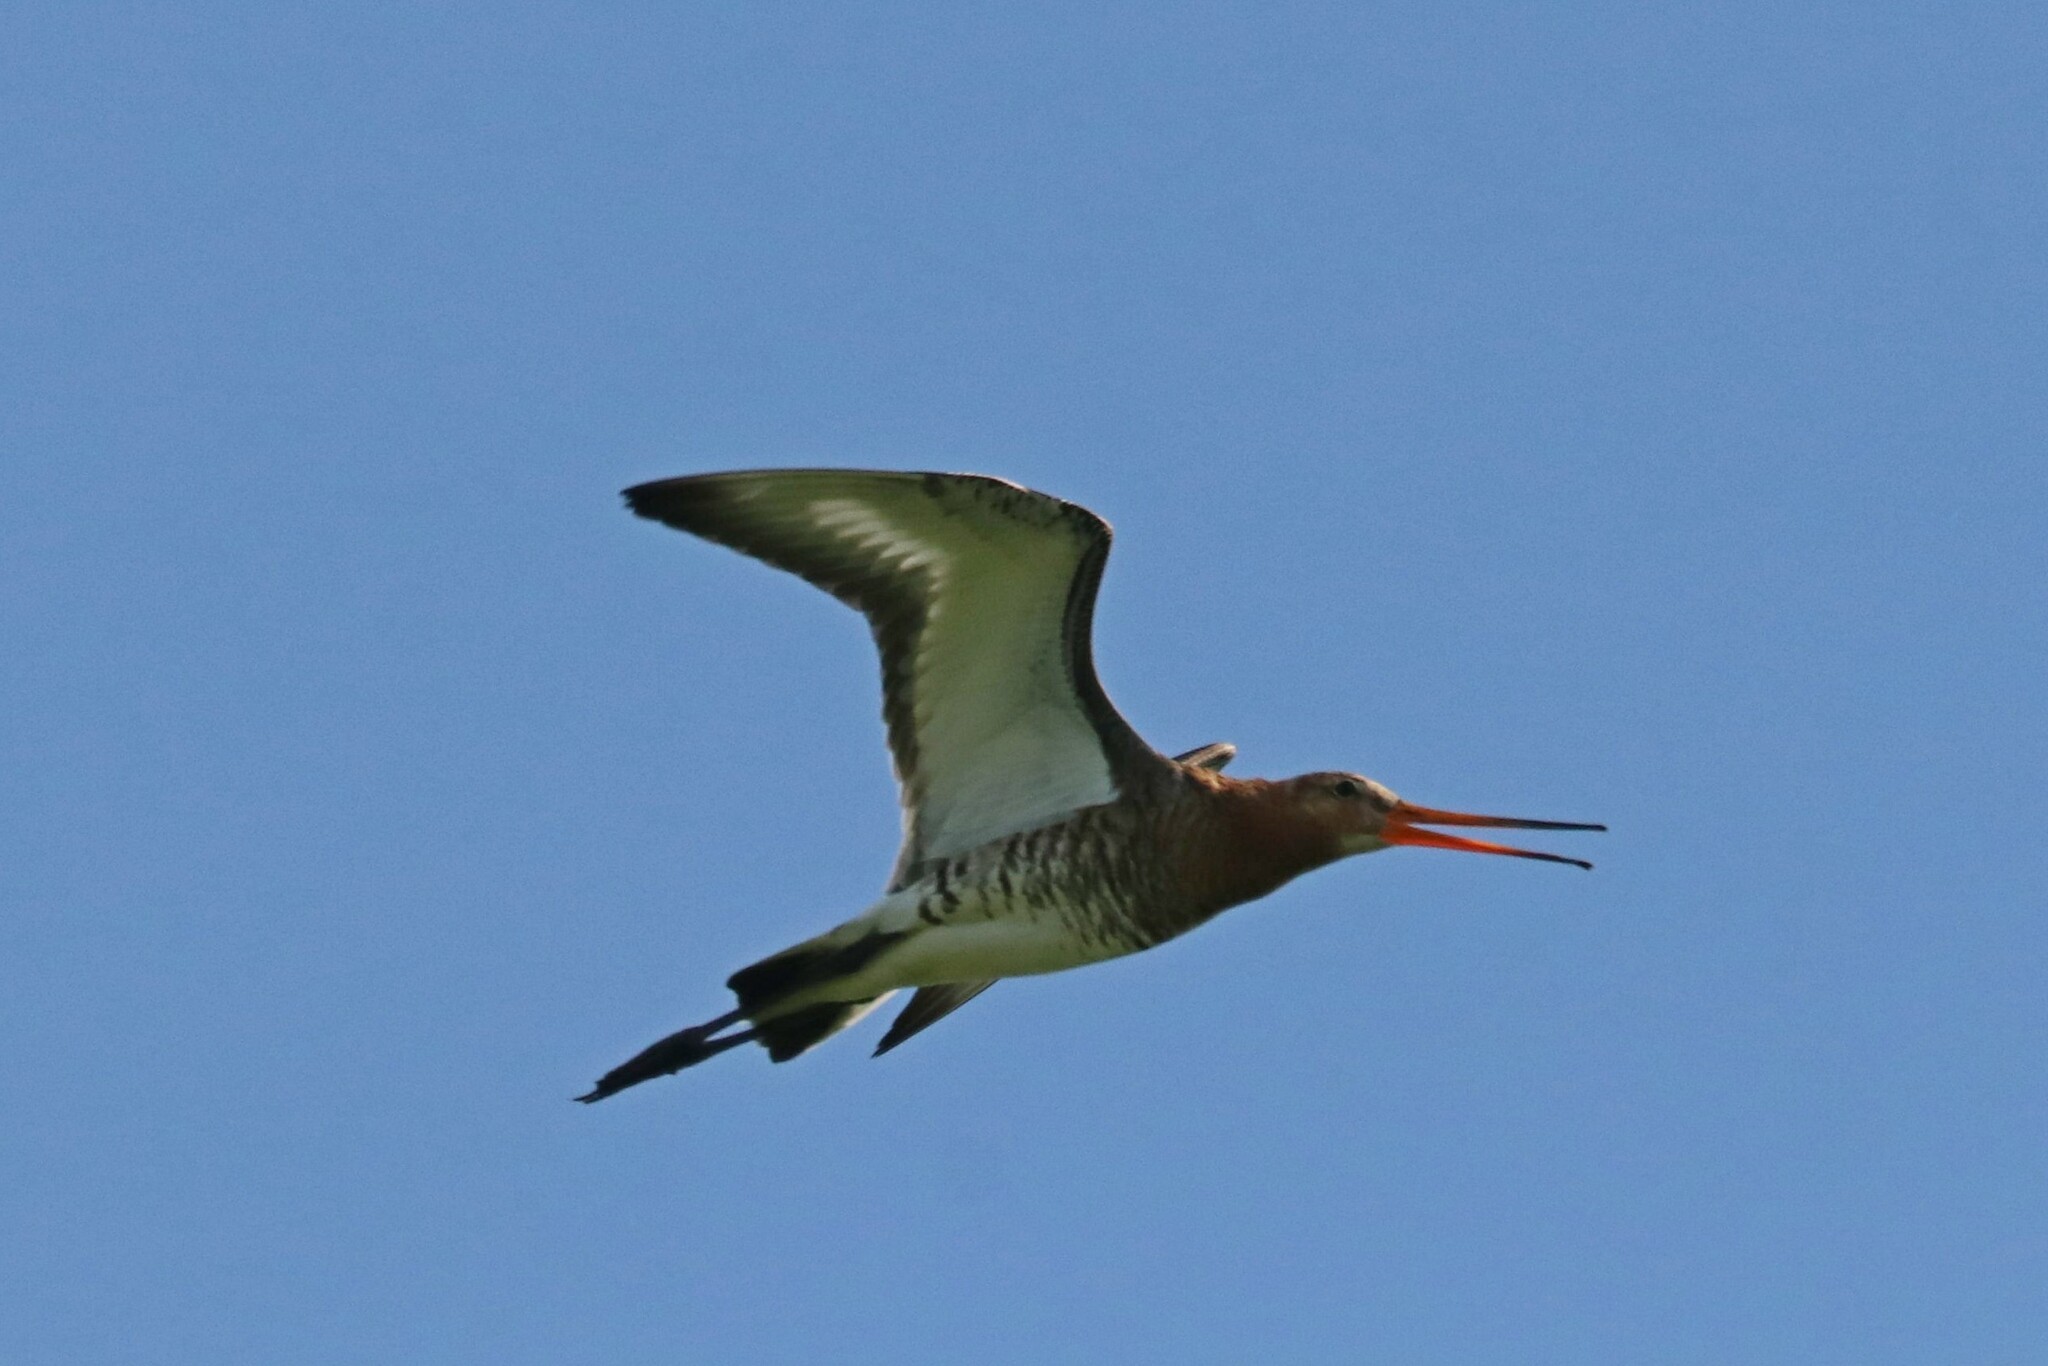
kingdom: Animalia
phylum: Chordata
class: Aves
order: Charadriiformes
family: Scolopacidae
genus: Limosa
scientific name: Limosa limosa
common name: Black-tailed godwit
